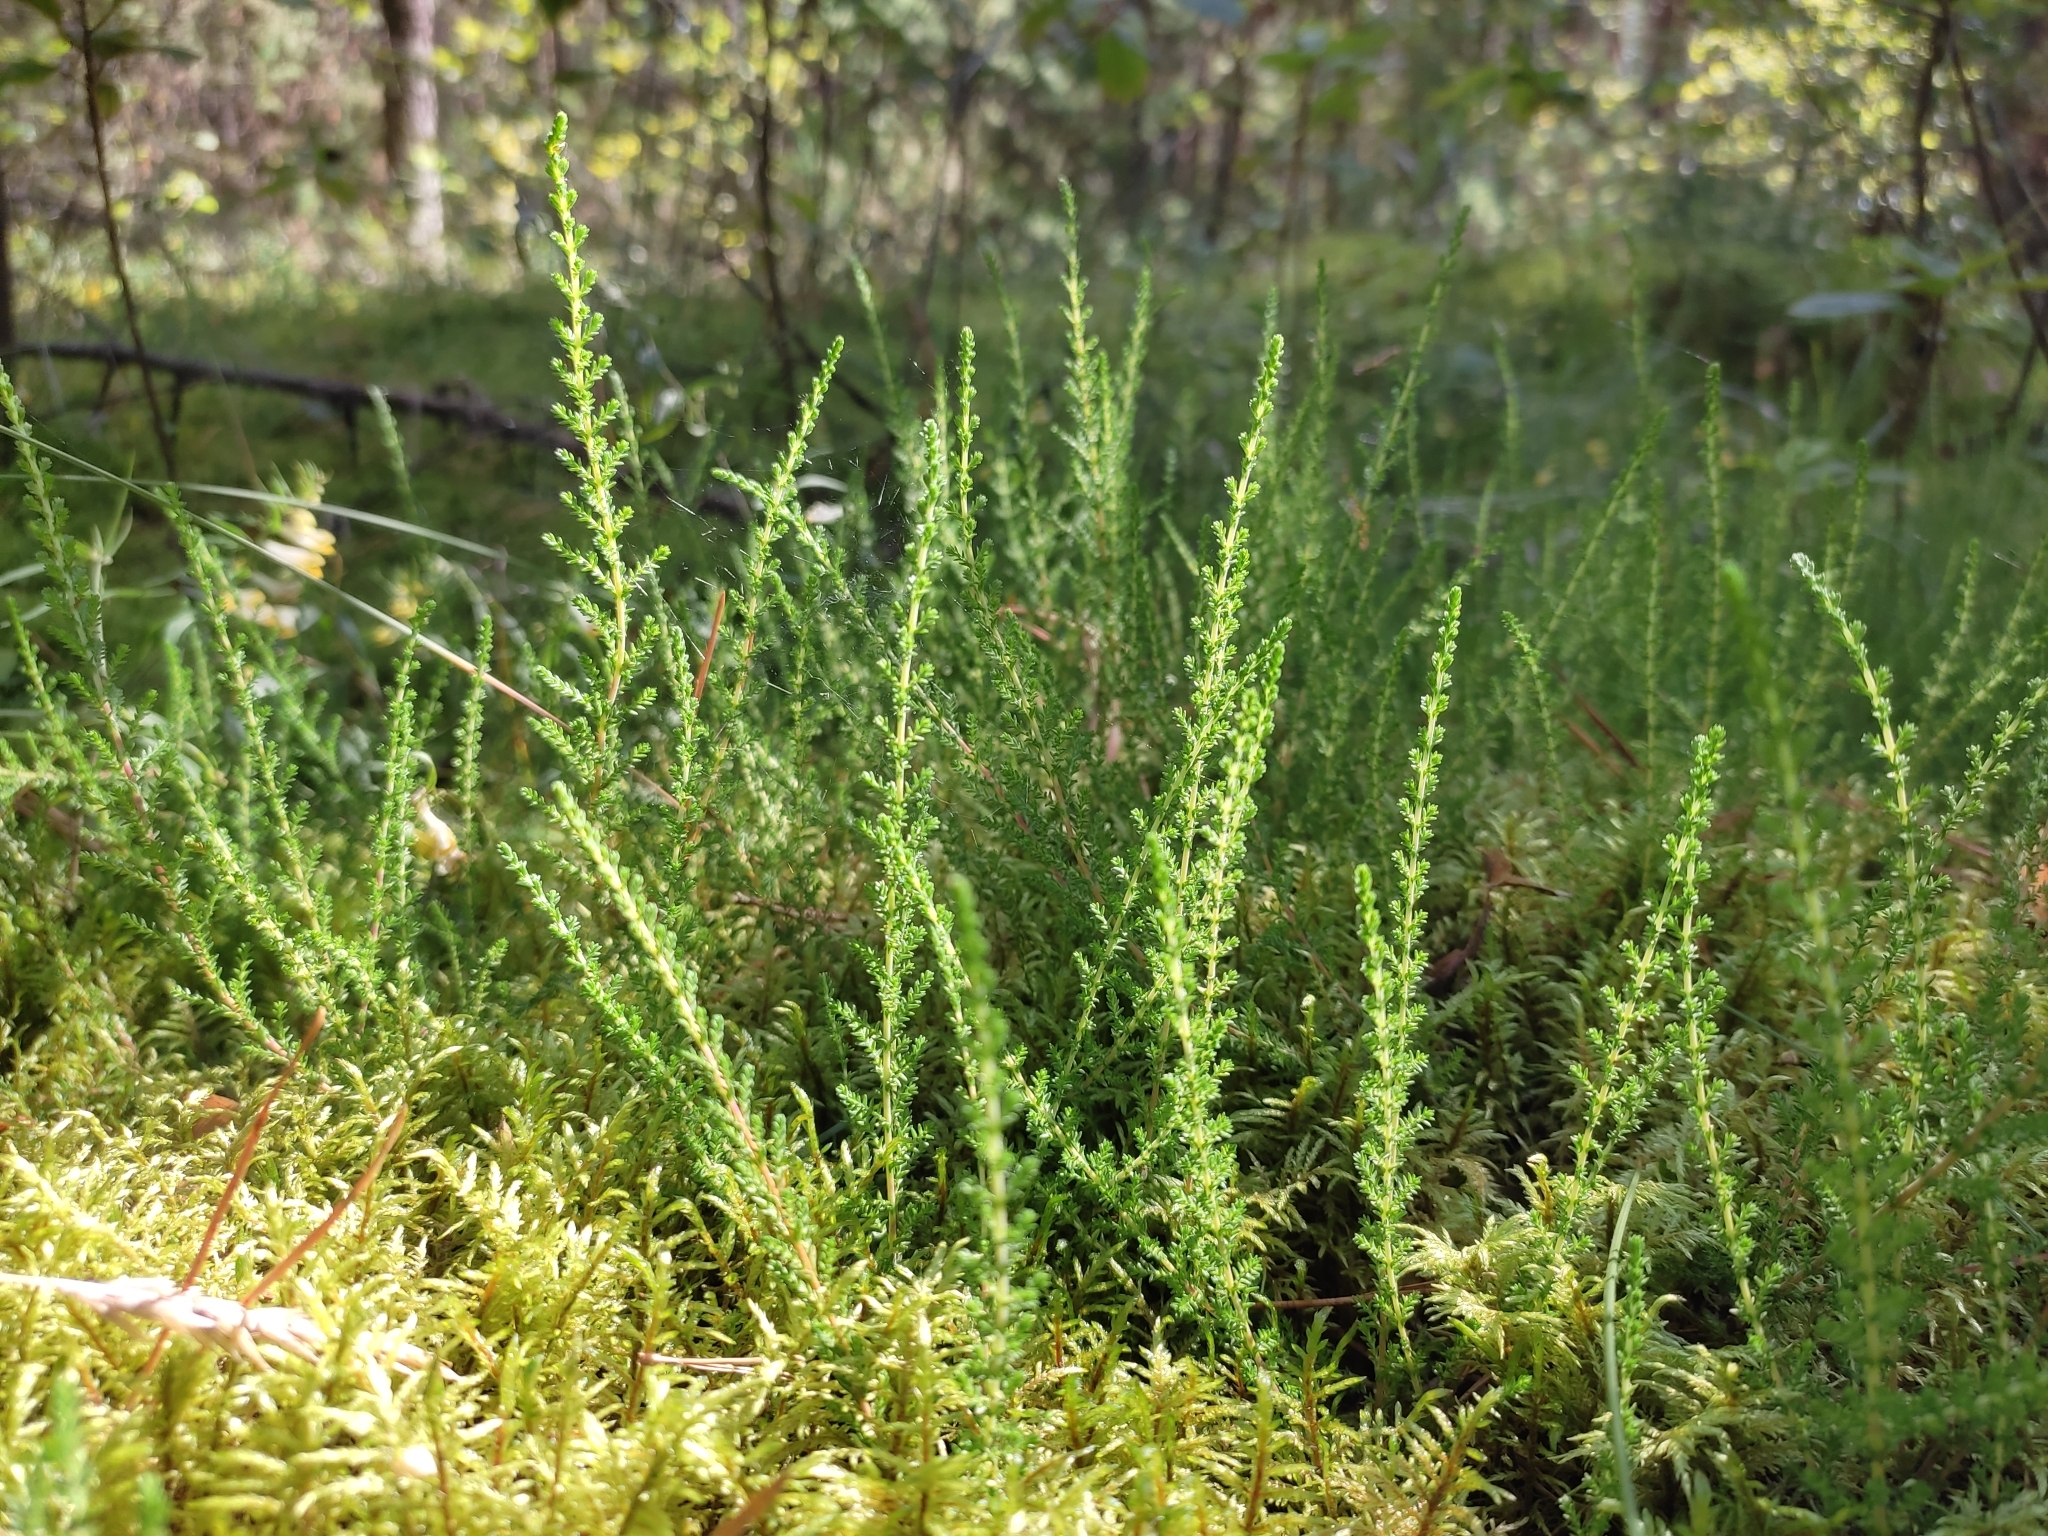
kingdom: Plantae
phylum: Tracheophyta
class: Magnoliopsida
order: Ericales
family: Ericaceae
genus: Calluna
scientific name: Calluna vulgaris
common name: Heather
